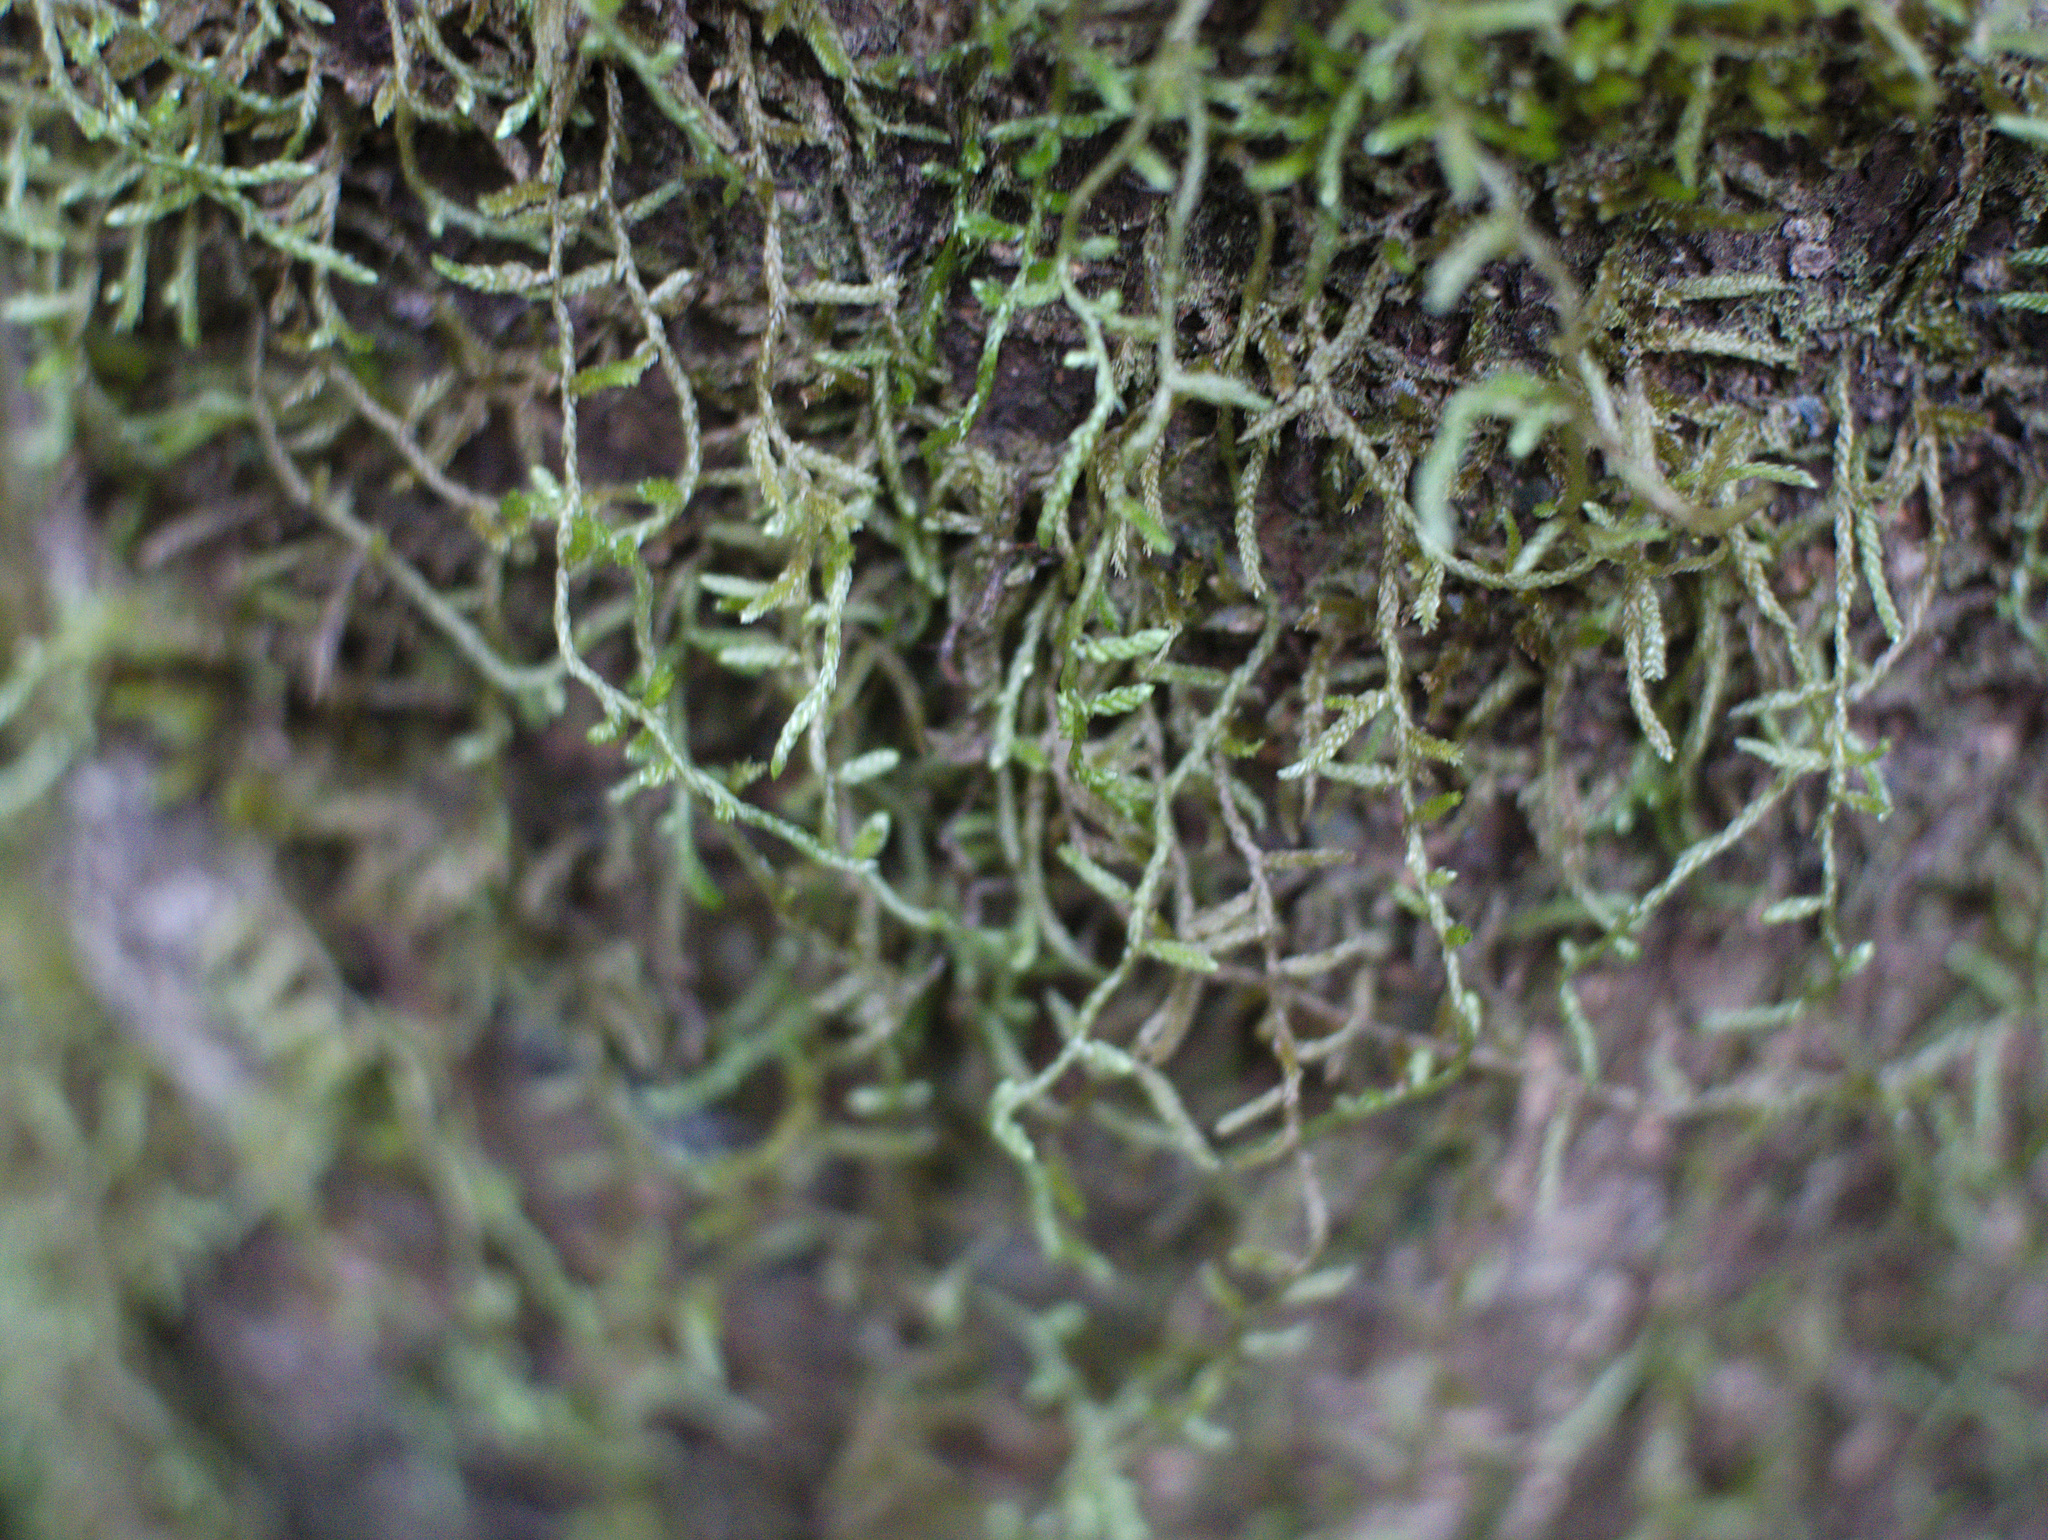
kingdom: Plantae
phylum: Bryophyta
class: Bryopsida
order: Hypnales
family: Lembophyllaceae
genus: Weymouthia
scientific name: Weymouthia mollis
